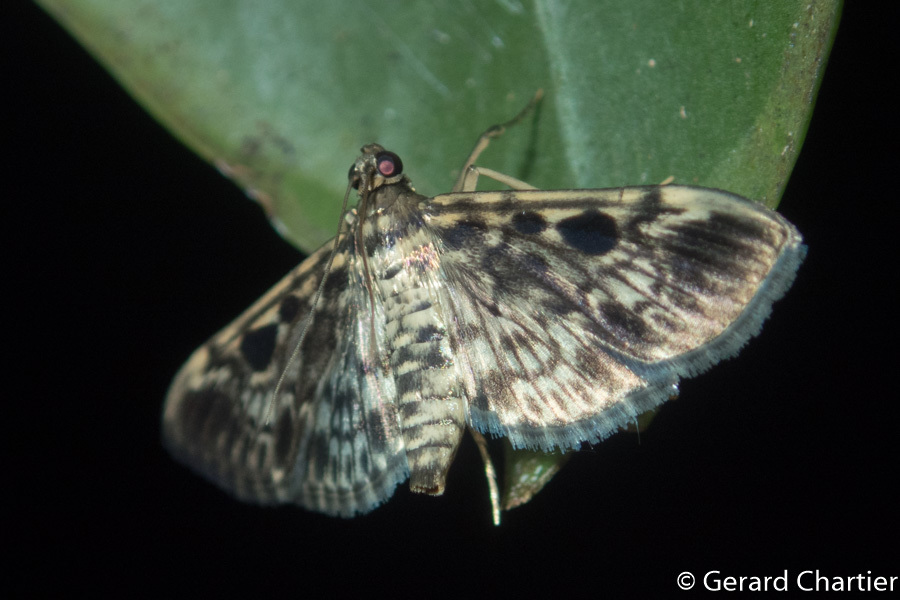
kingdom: Animalia
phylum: Arthropoda
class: Insecta
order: Lepidoptera
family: Crambidae
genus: Rhimphaliodes
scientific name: Rhimphaliodes macrostigma
